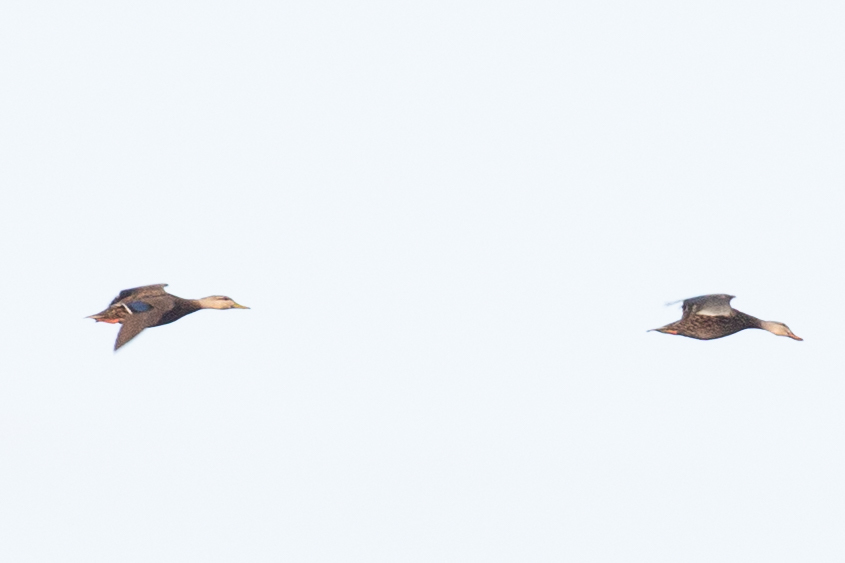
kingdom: Animalia
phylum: Chordata
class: Aves
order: Anseriformes
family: Anatidae
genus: Anas
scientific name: Anas fulvigula
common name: Mottled duck
